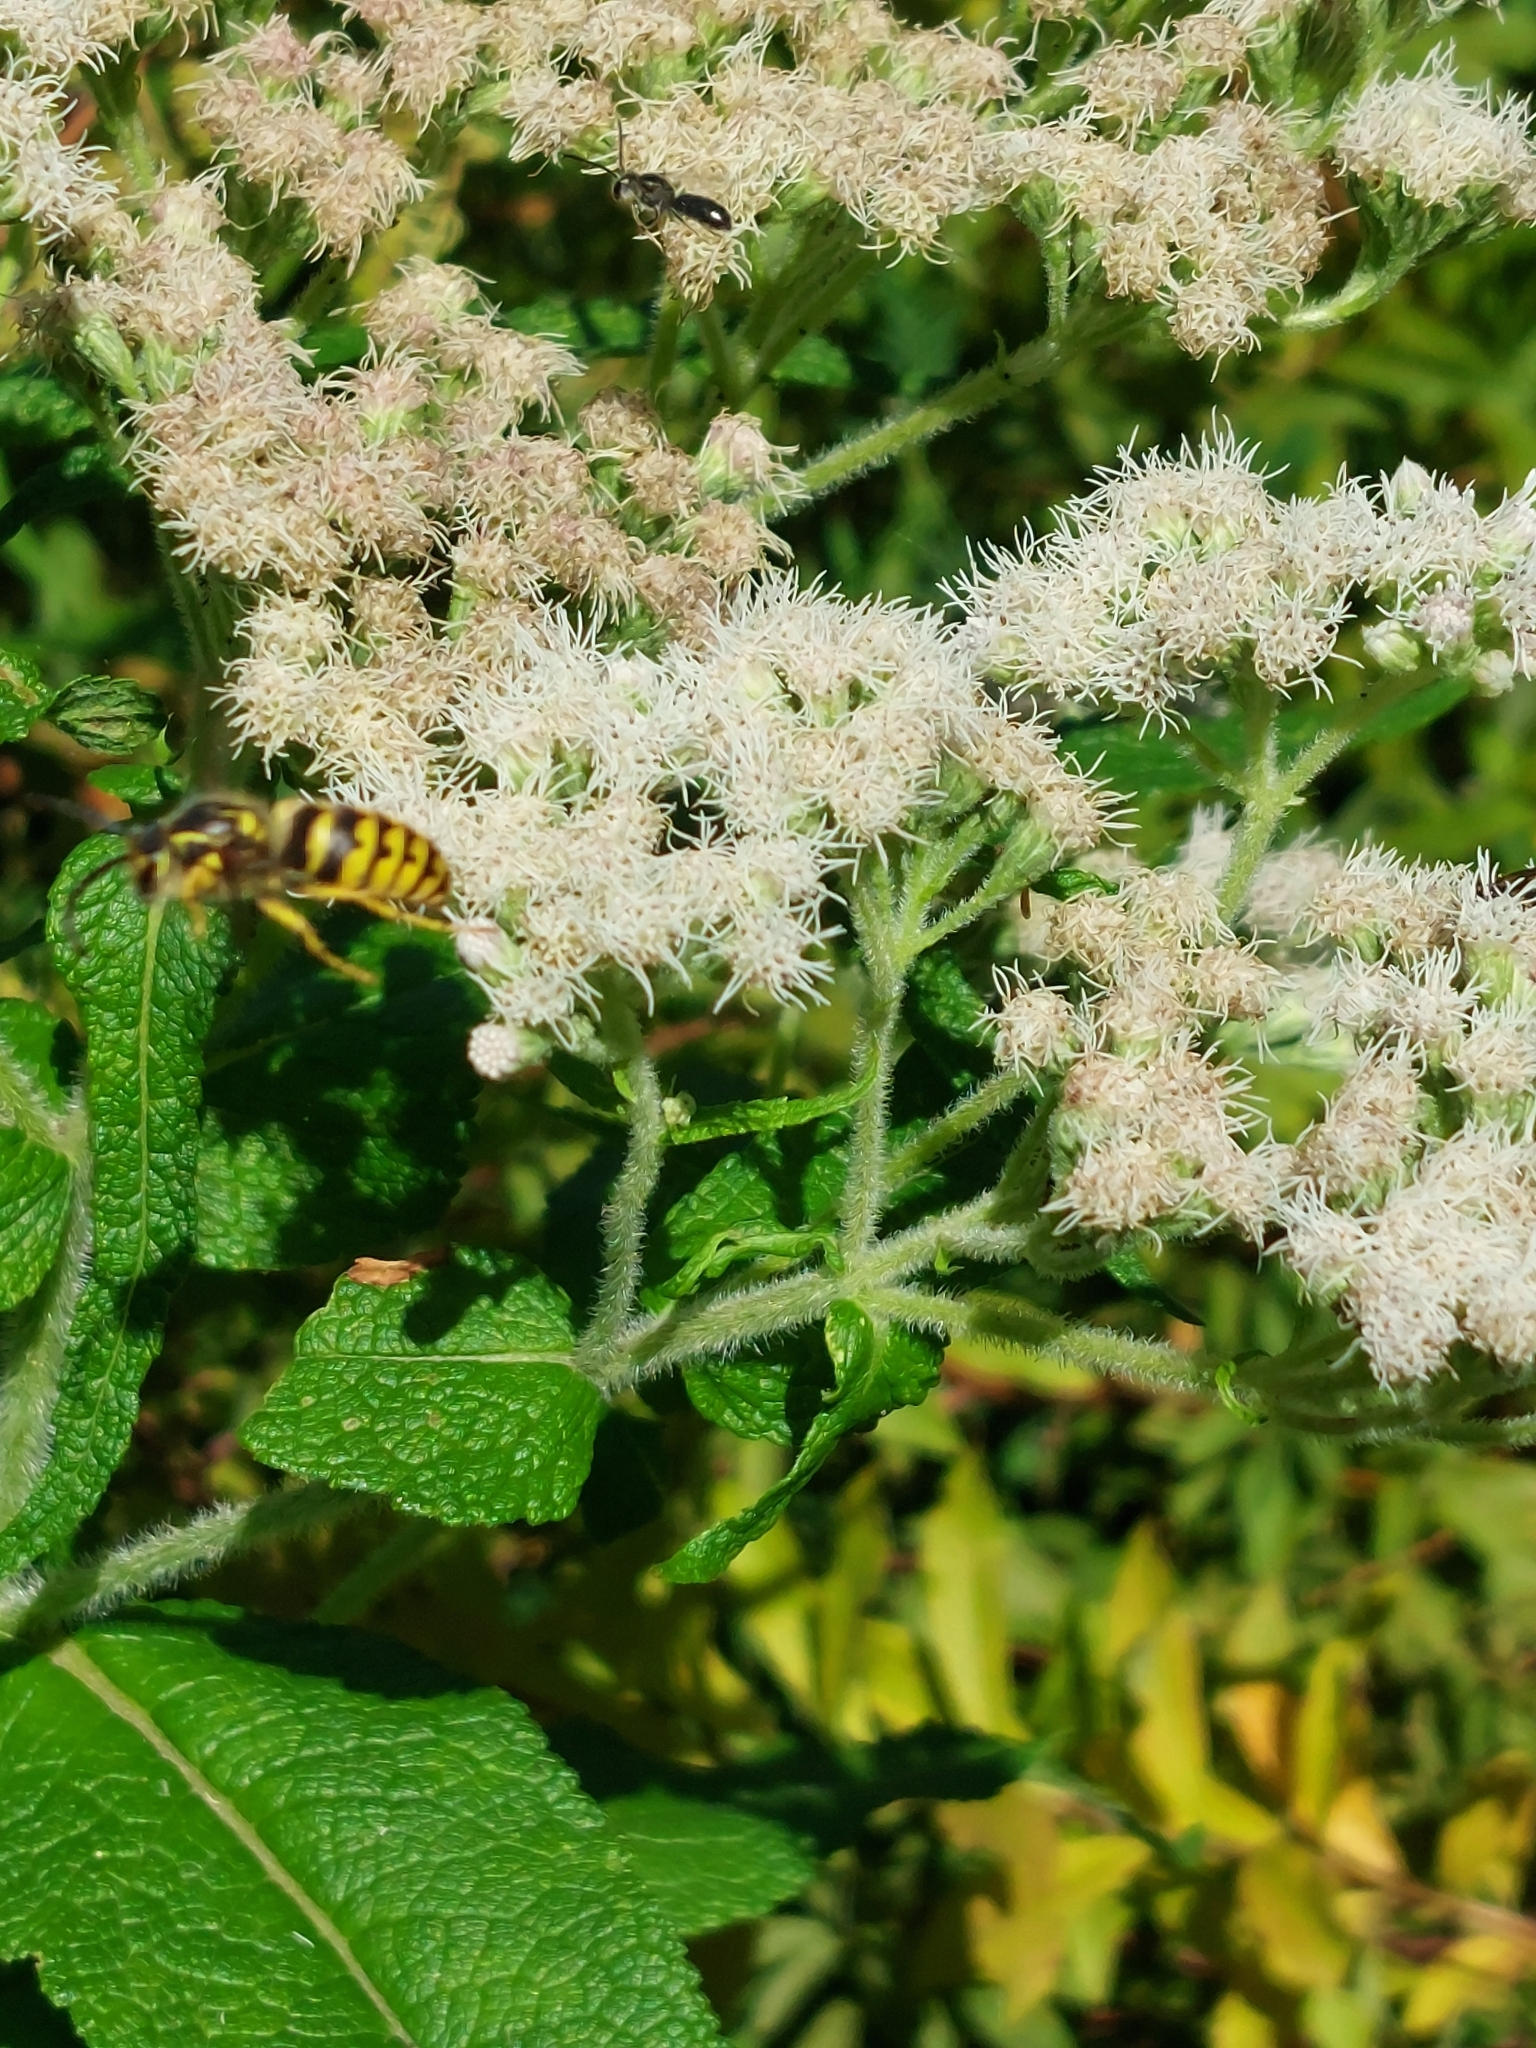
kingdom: Animalia
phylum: Arthropoda
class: Insecta
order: Hymenoptera
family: Vespidae
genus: Dolichovespula
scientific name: Dolichovespula arenaria
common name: Aerial yellowjacket
